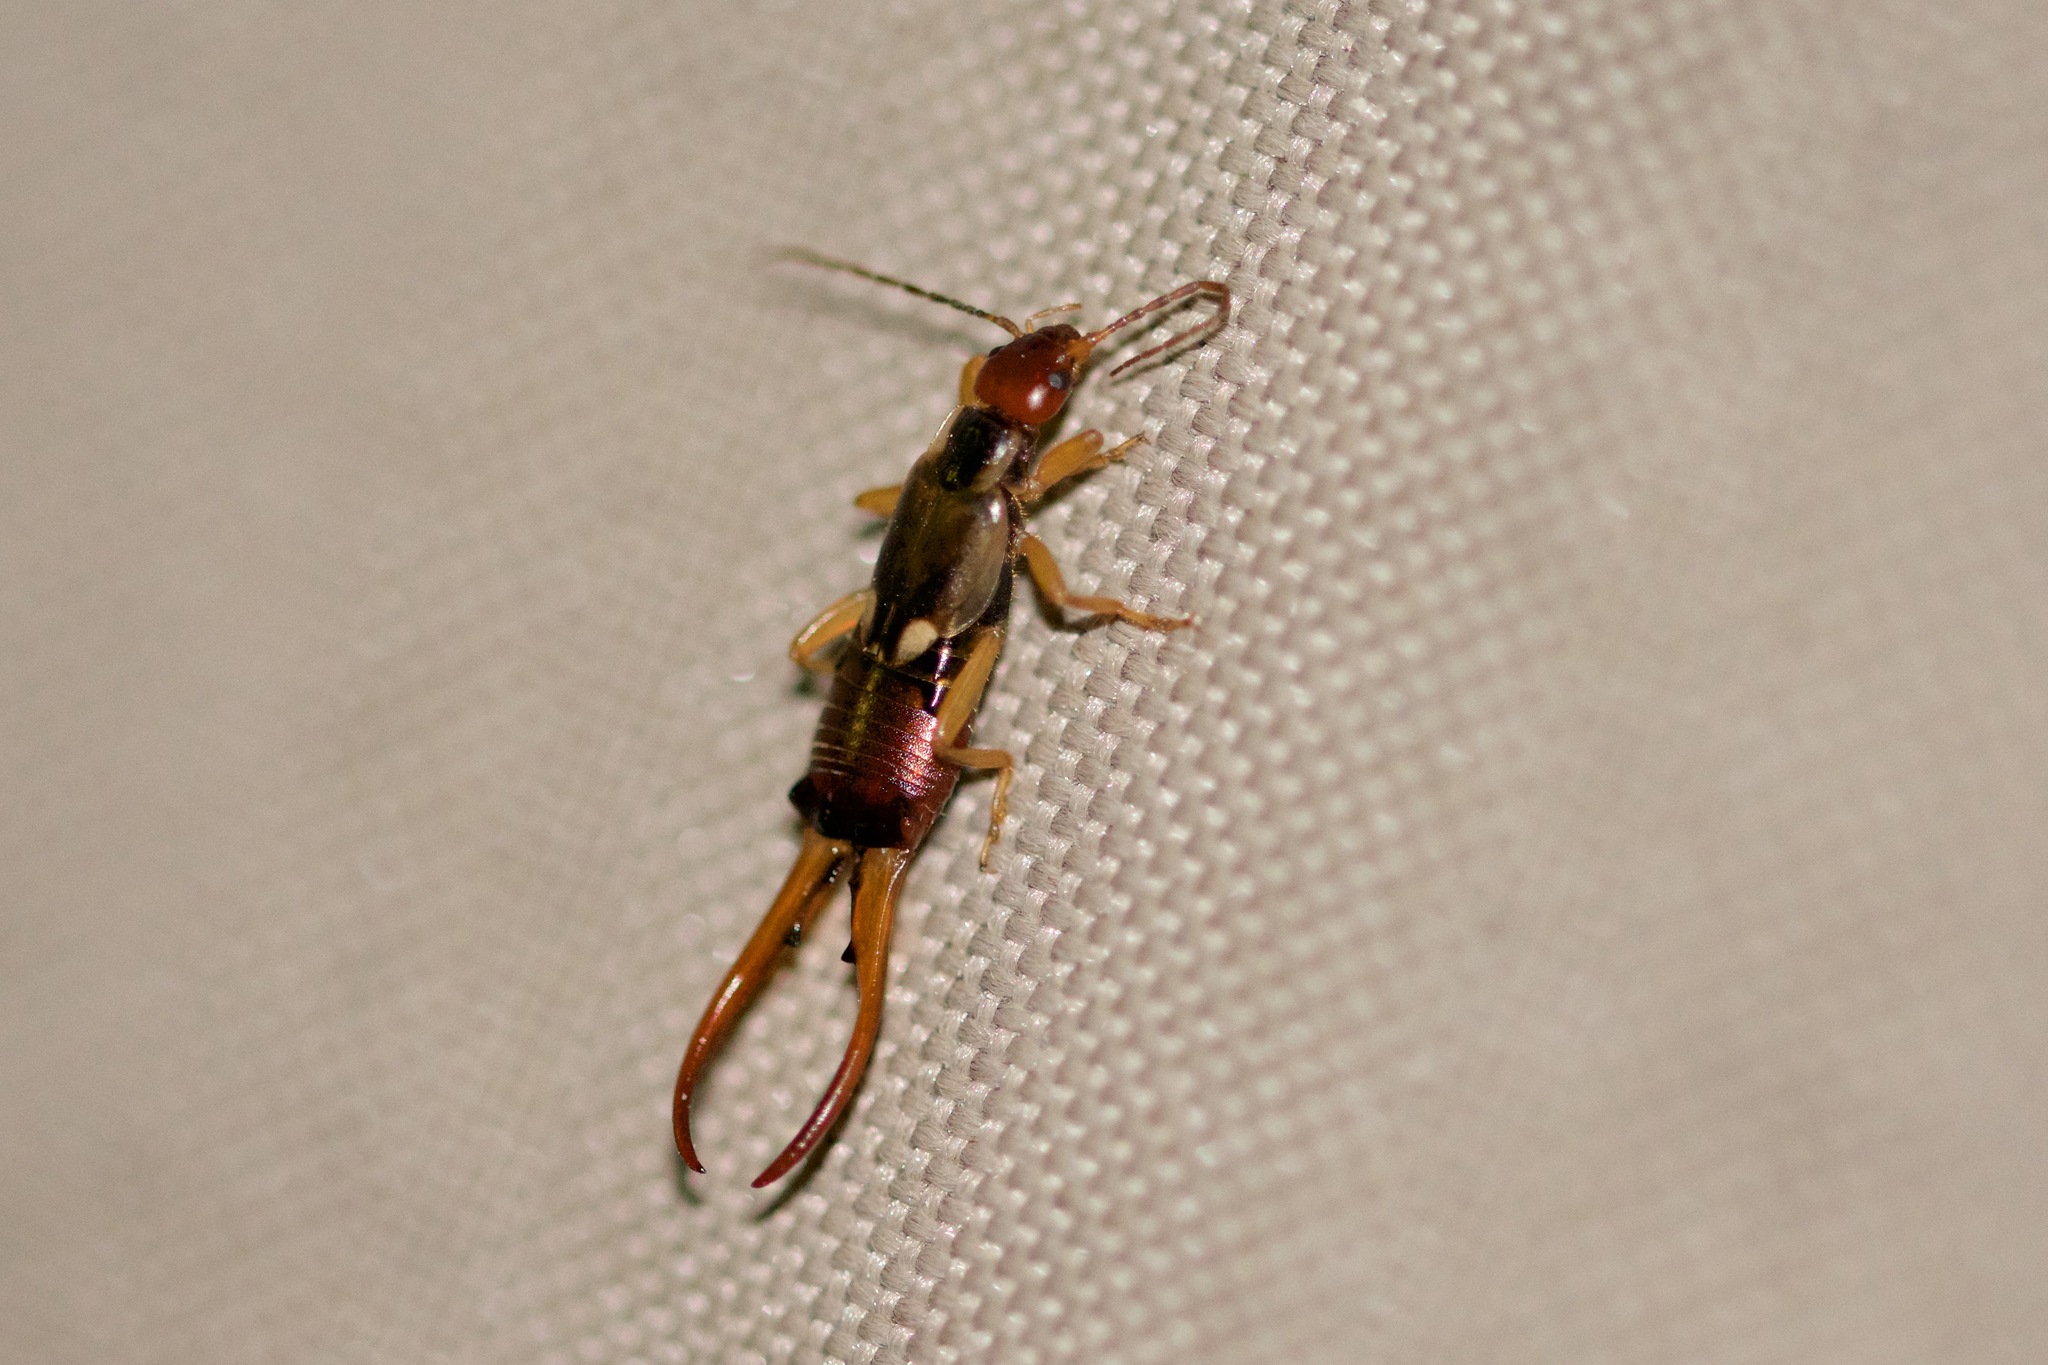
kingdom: Animalia
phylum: Arthropoda
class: Insecta
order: Dermaptera
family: Forficulidae
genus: Forficula
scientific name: Forficula
